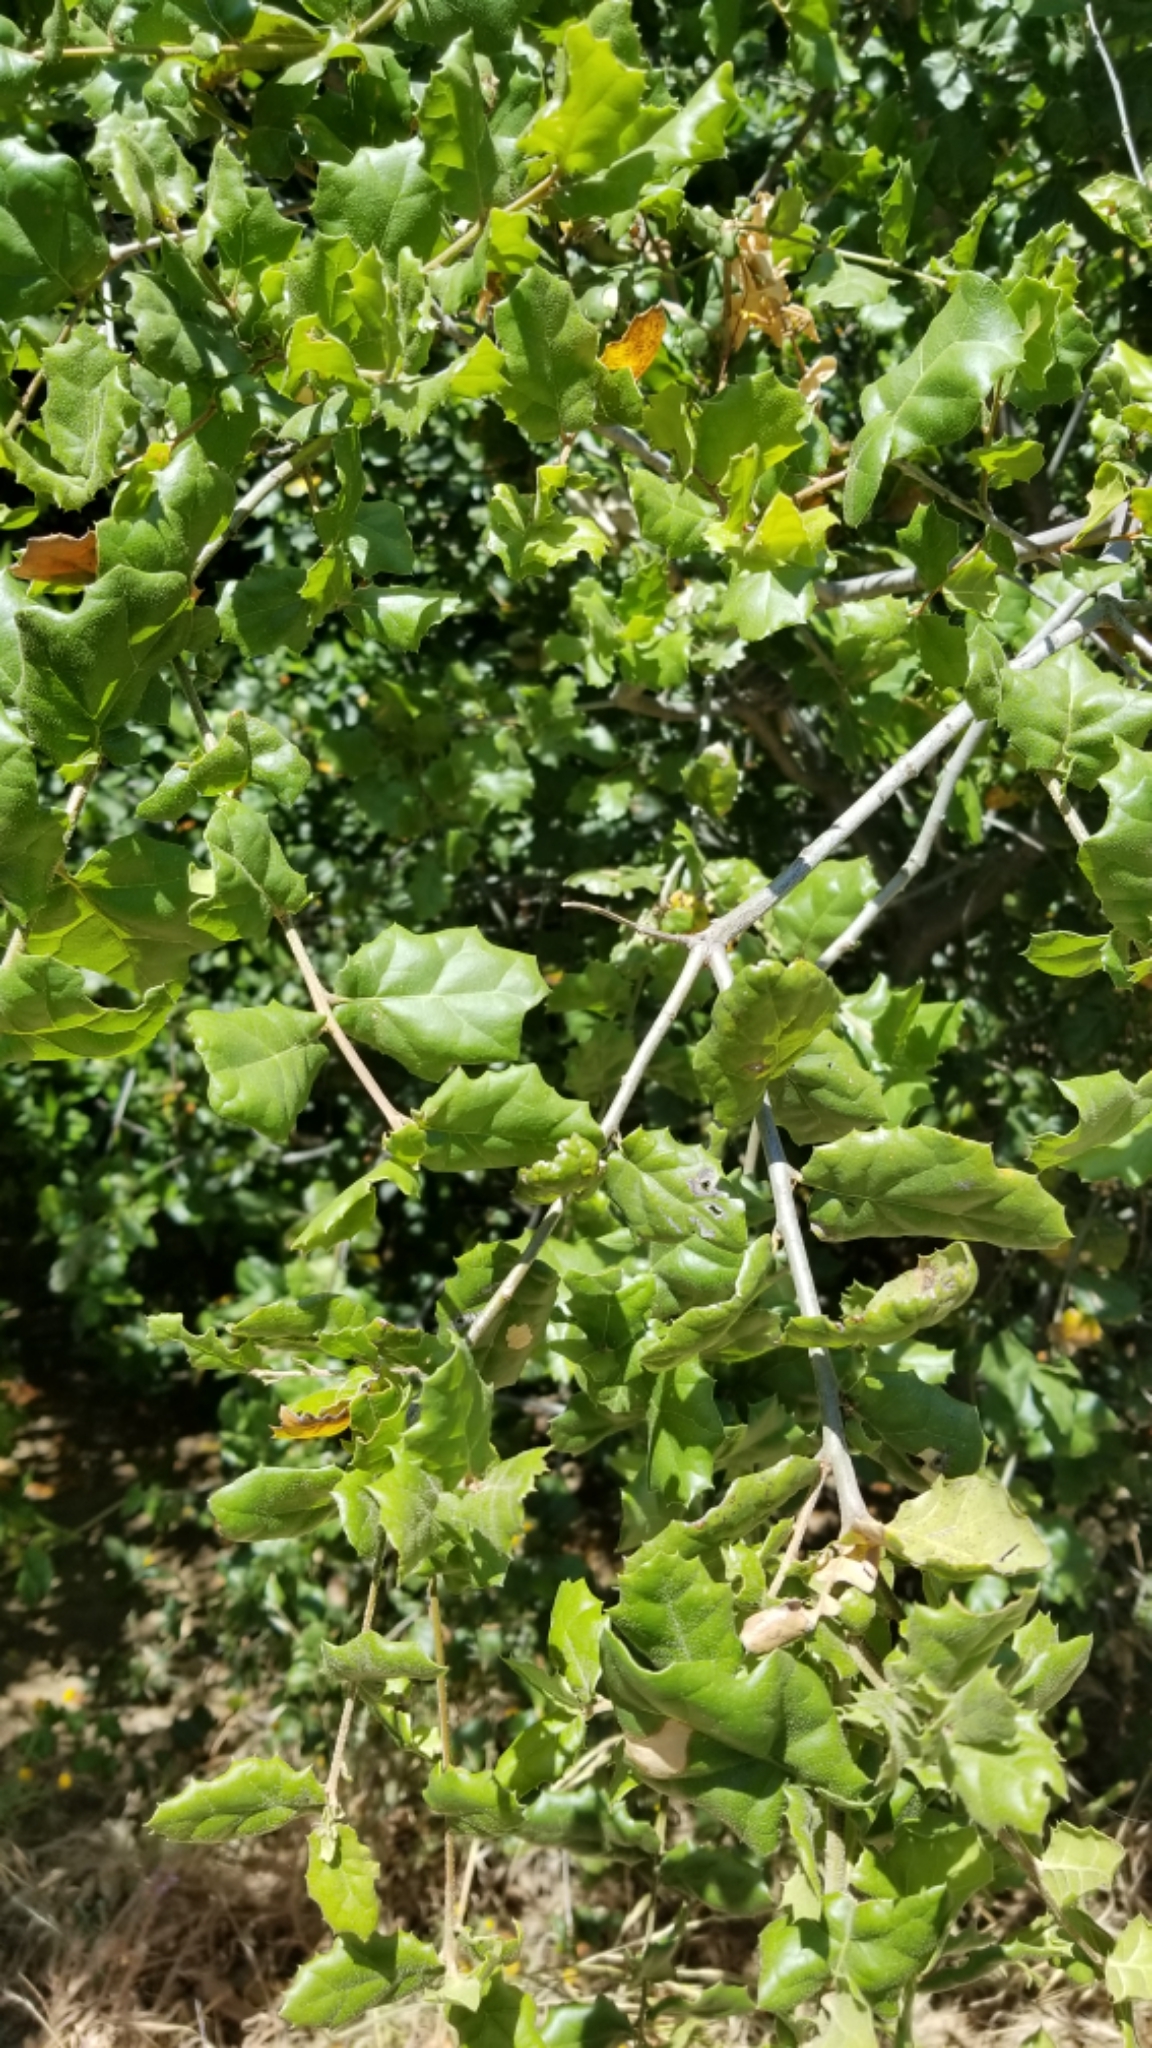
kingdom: Plantae
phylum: Tracheophyta
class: Magnoliopsida
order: Fagales
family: Fagaceae
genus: Quercus
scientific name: Quercus agrifolia
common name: California live oak
